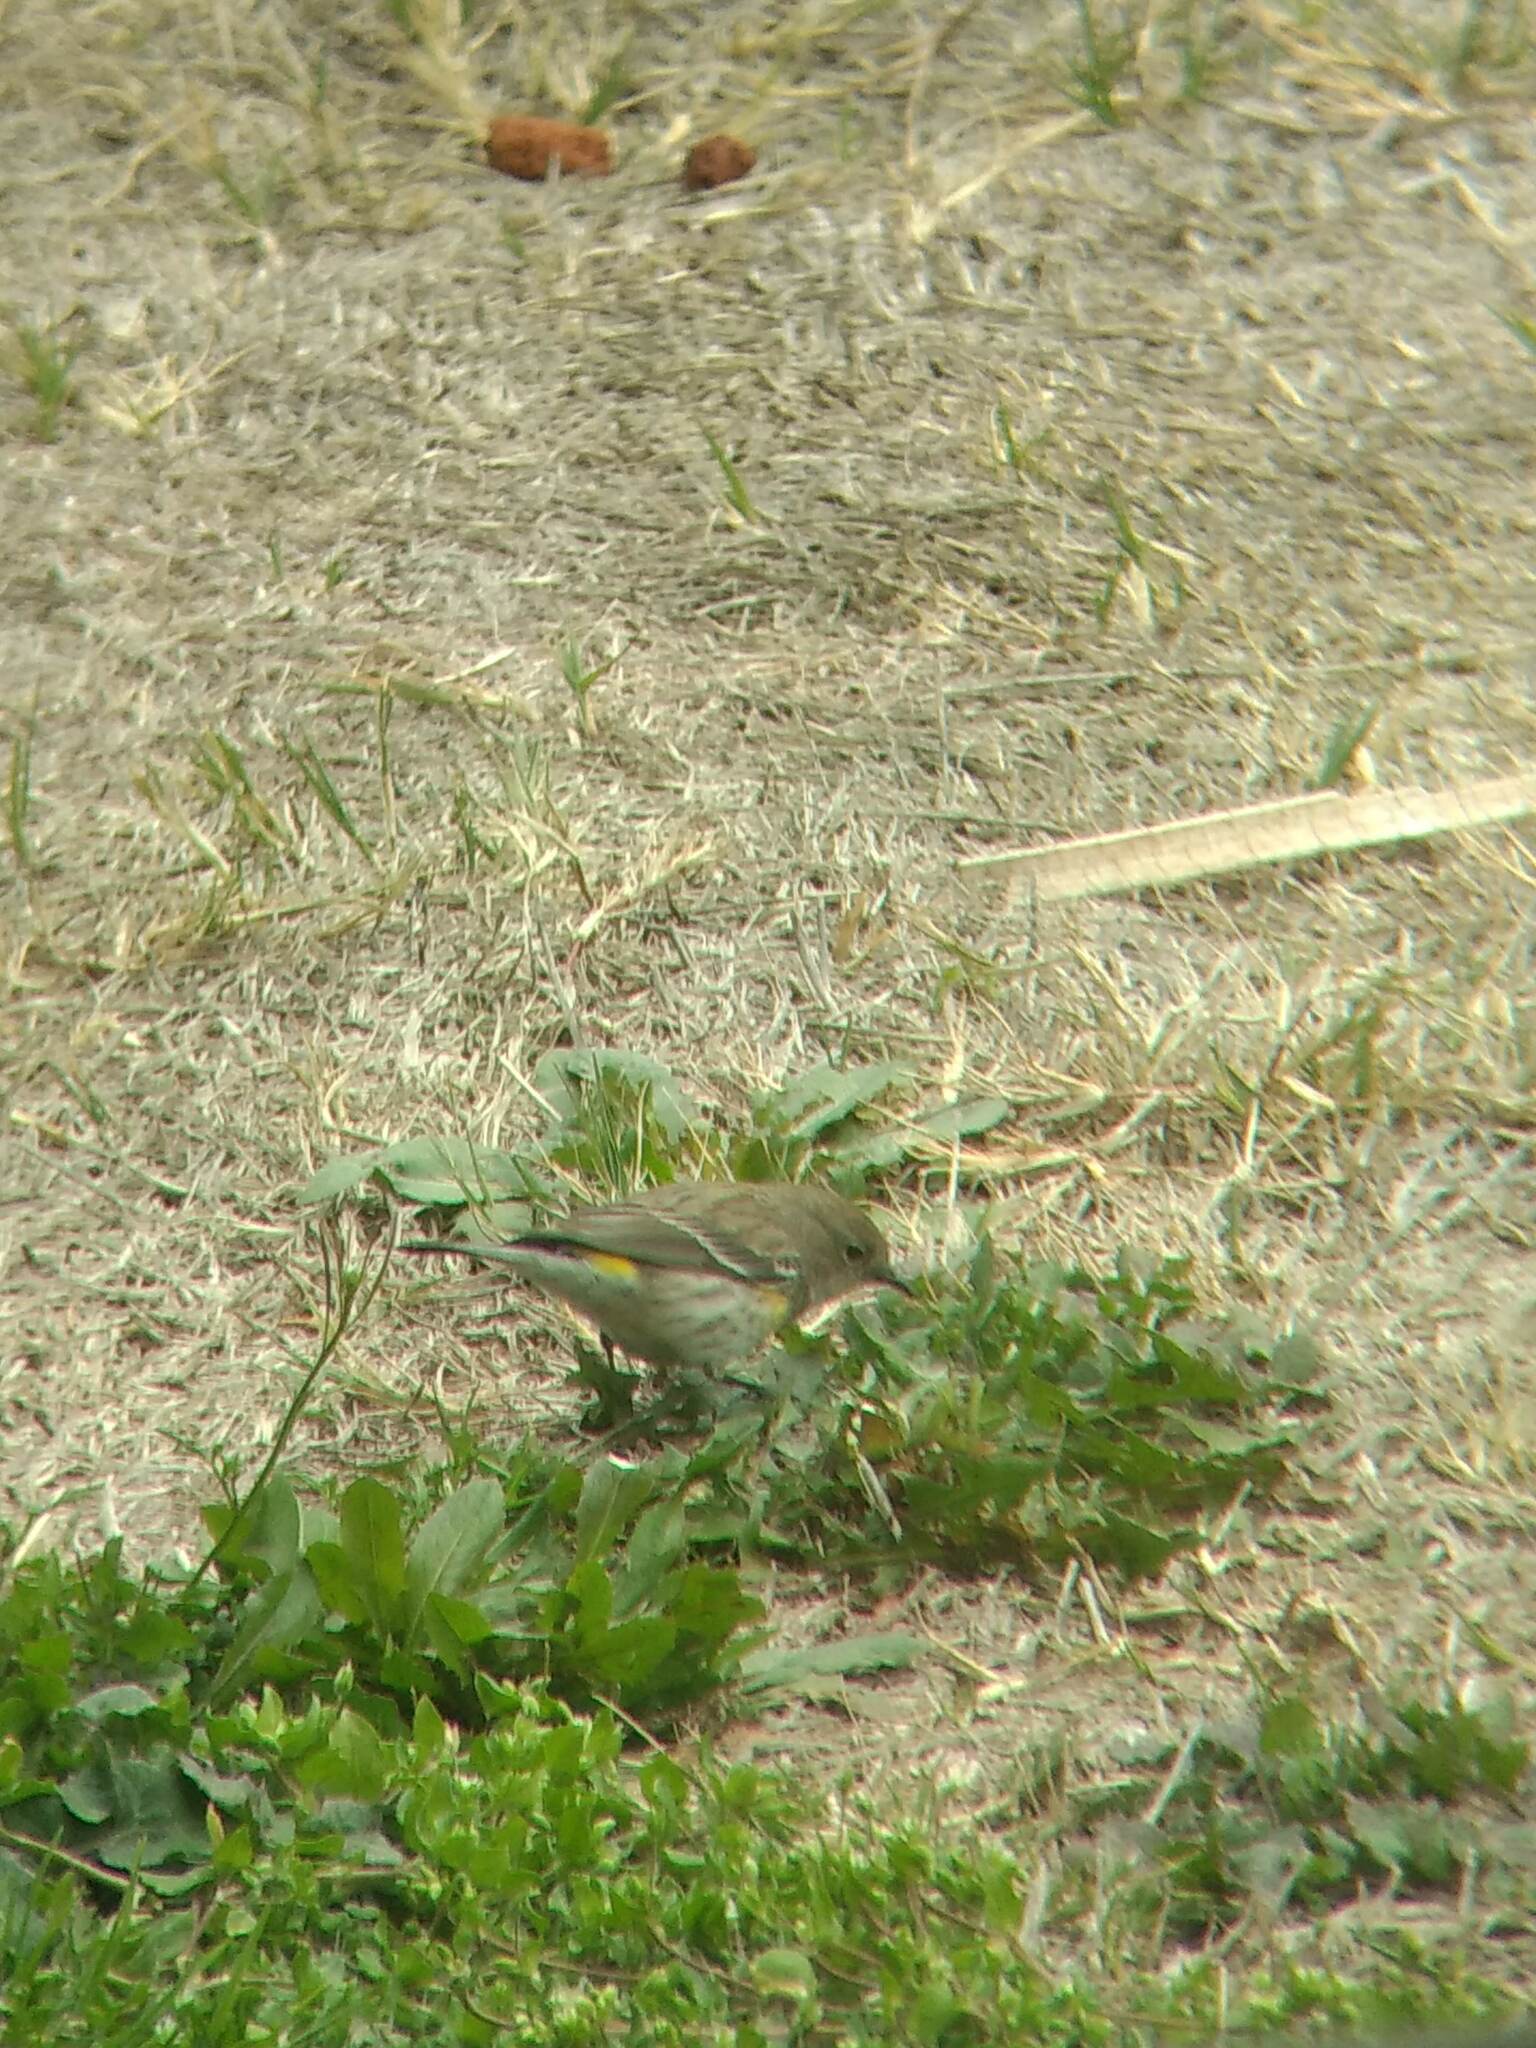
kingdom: Animalia
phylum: Chordata
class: Aves
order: Passeriformes
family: Parulidae
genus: Setophaga
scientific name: Setophaga coronata
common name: Myrtle warbler
